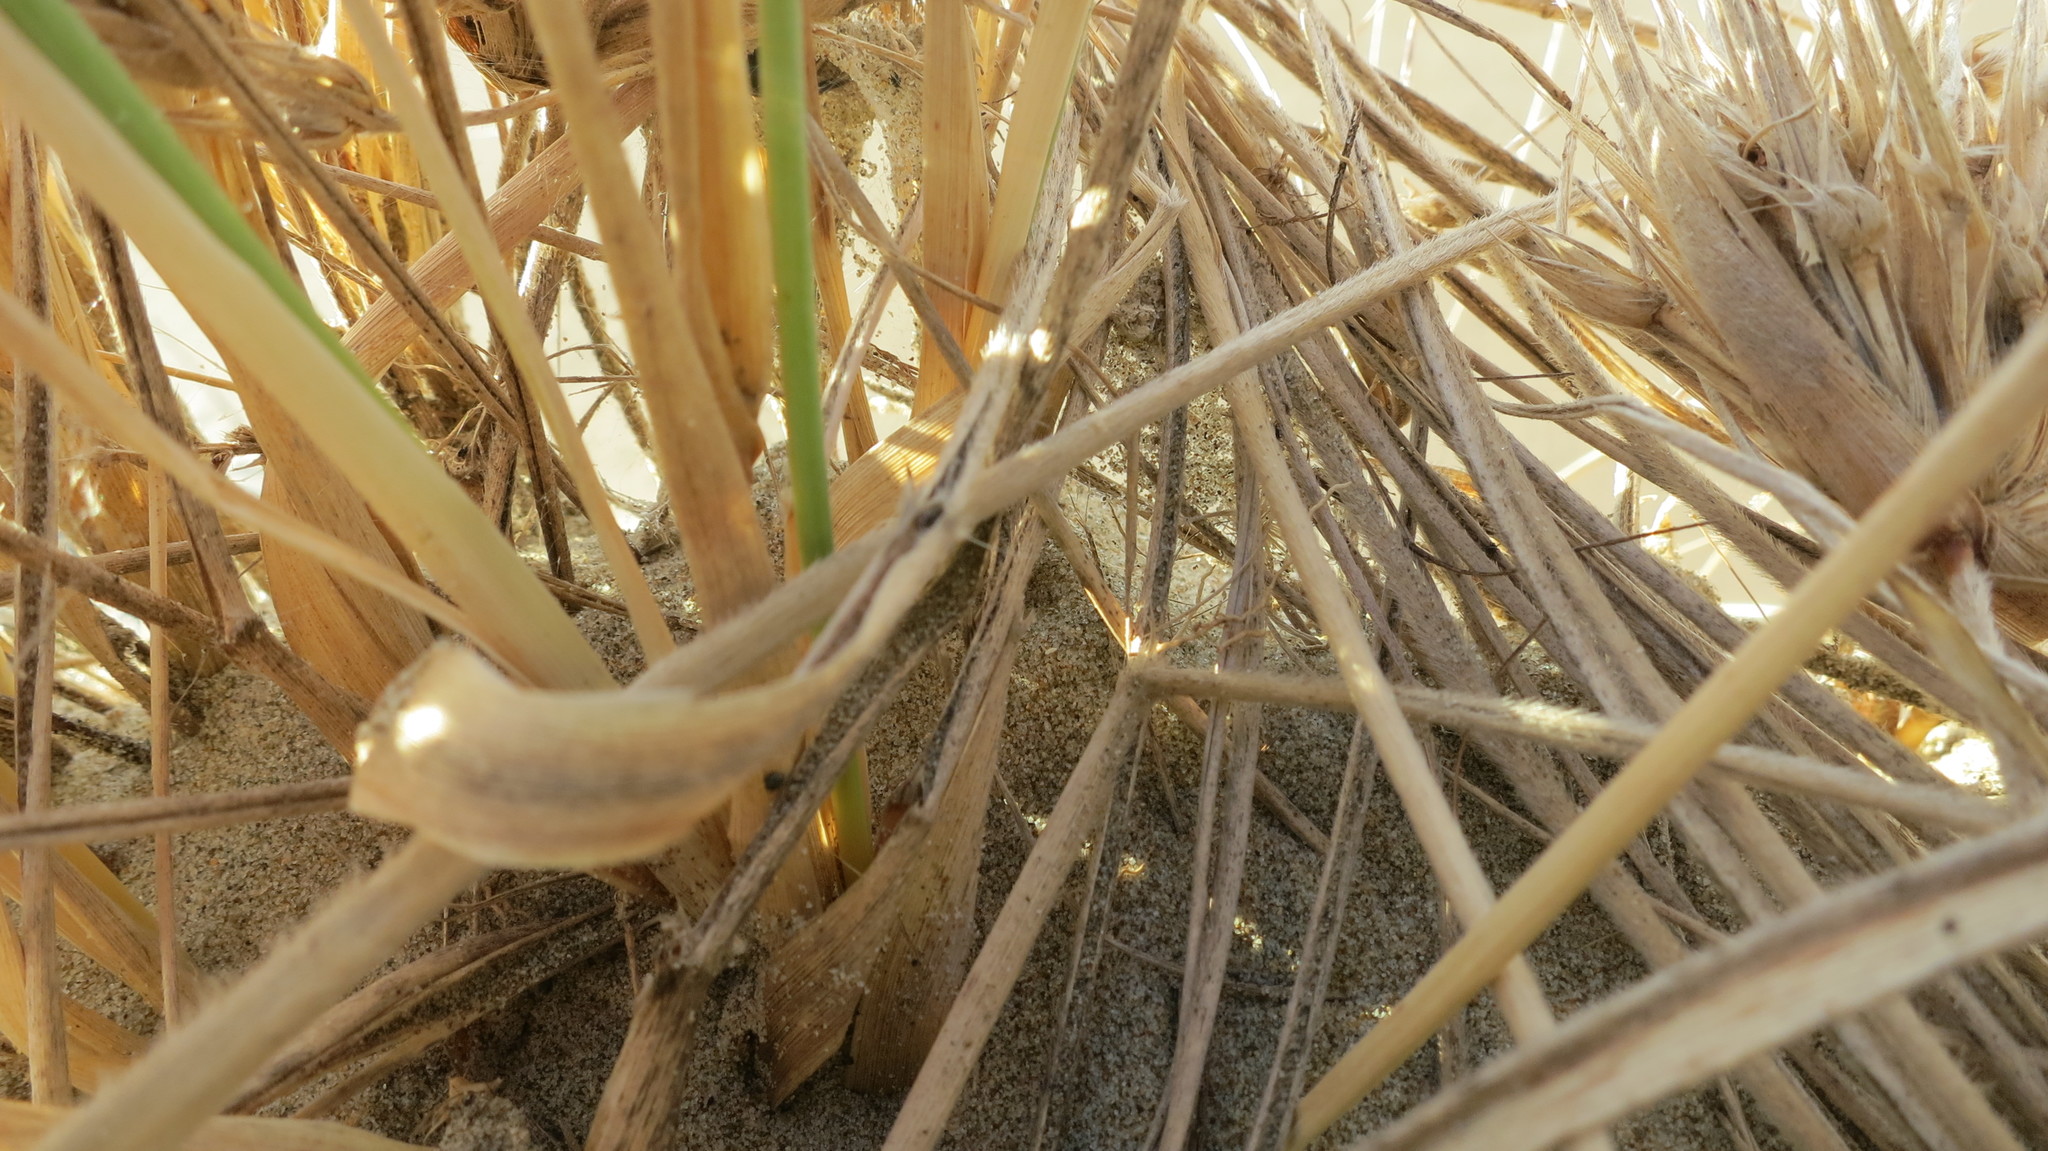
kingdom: Animalia
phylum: Arthropoda
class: Arachnida
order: Araneae
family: Theridiidae
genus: Latrodectus
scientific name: Latrodectus katipo
